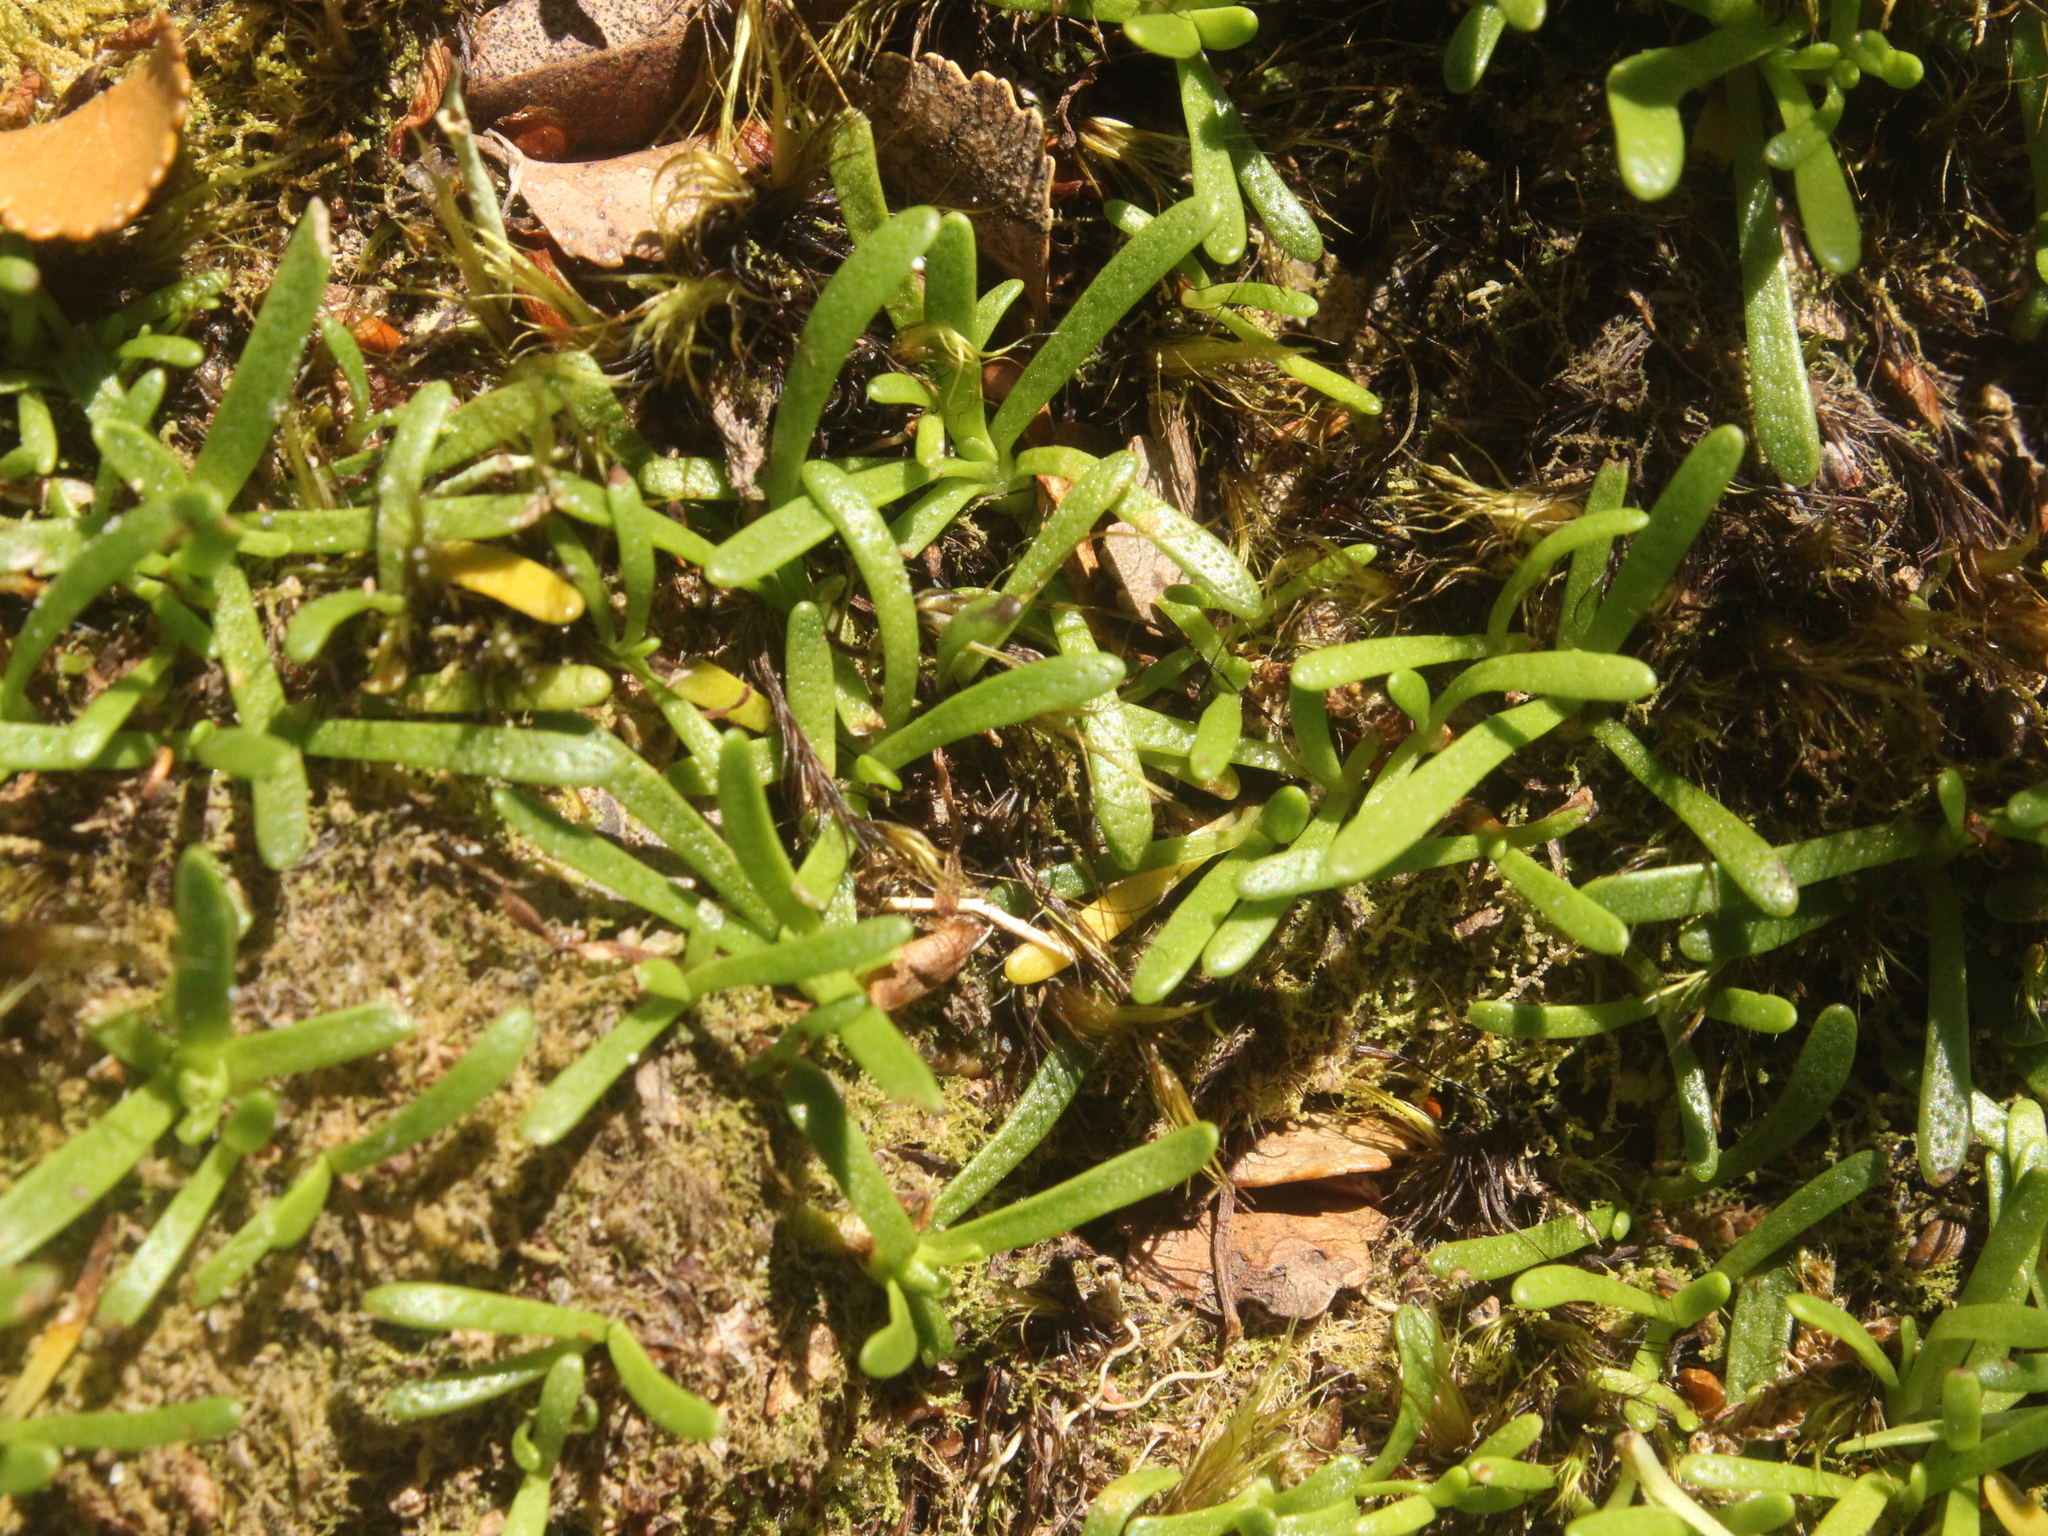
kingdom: Plantae
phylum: Tracheophyta
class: Magnoliopsida
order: Asterales
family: Asteraceae
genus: Abrotanella
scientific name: Abrotanella caespitosa
